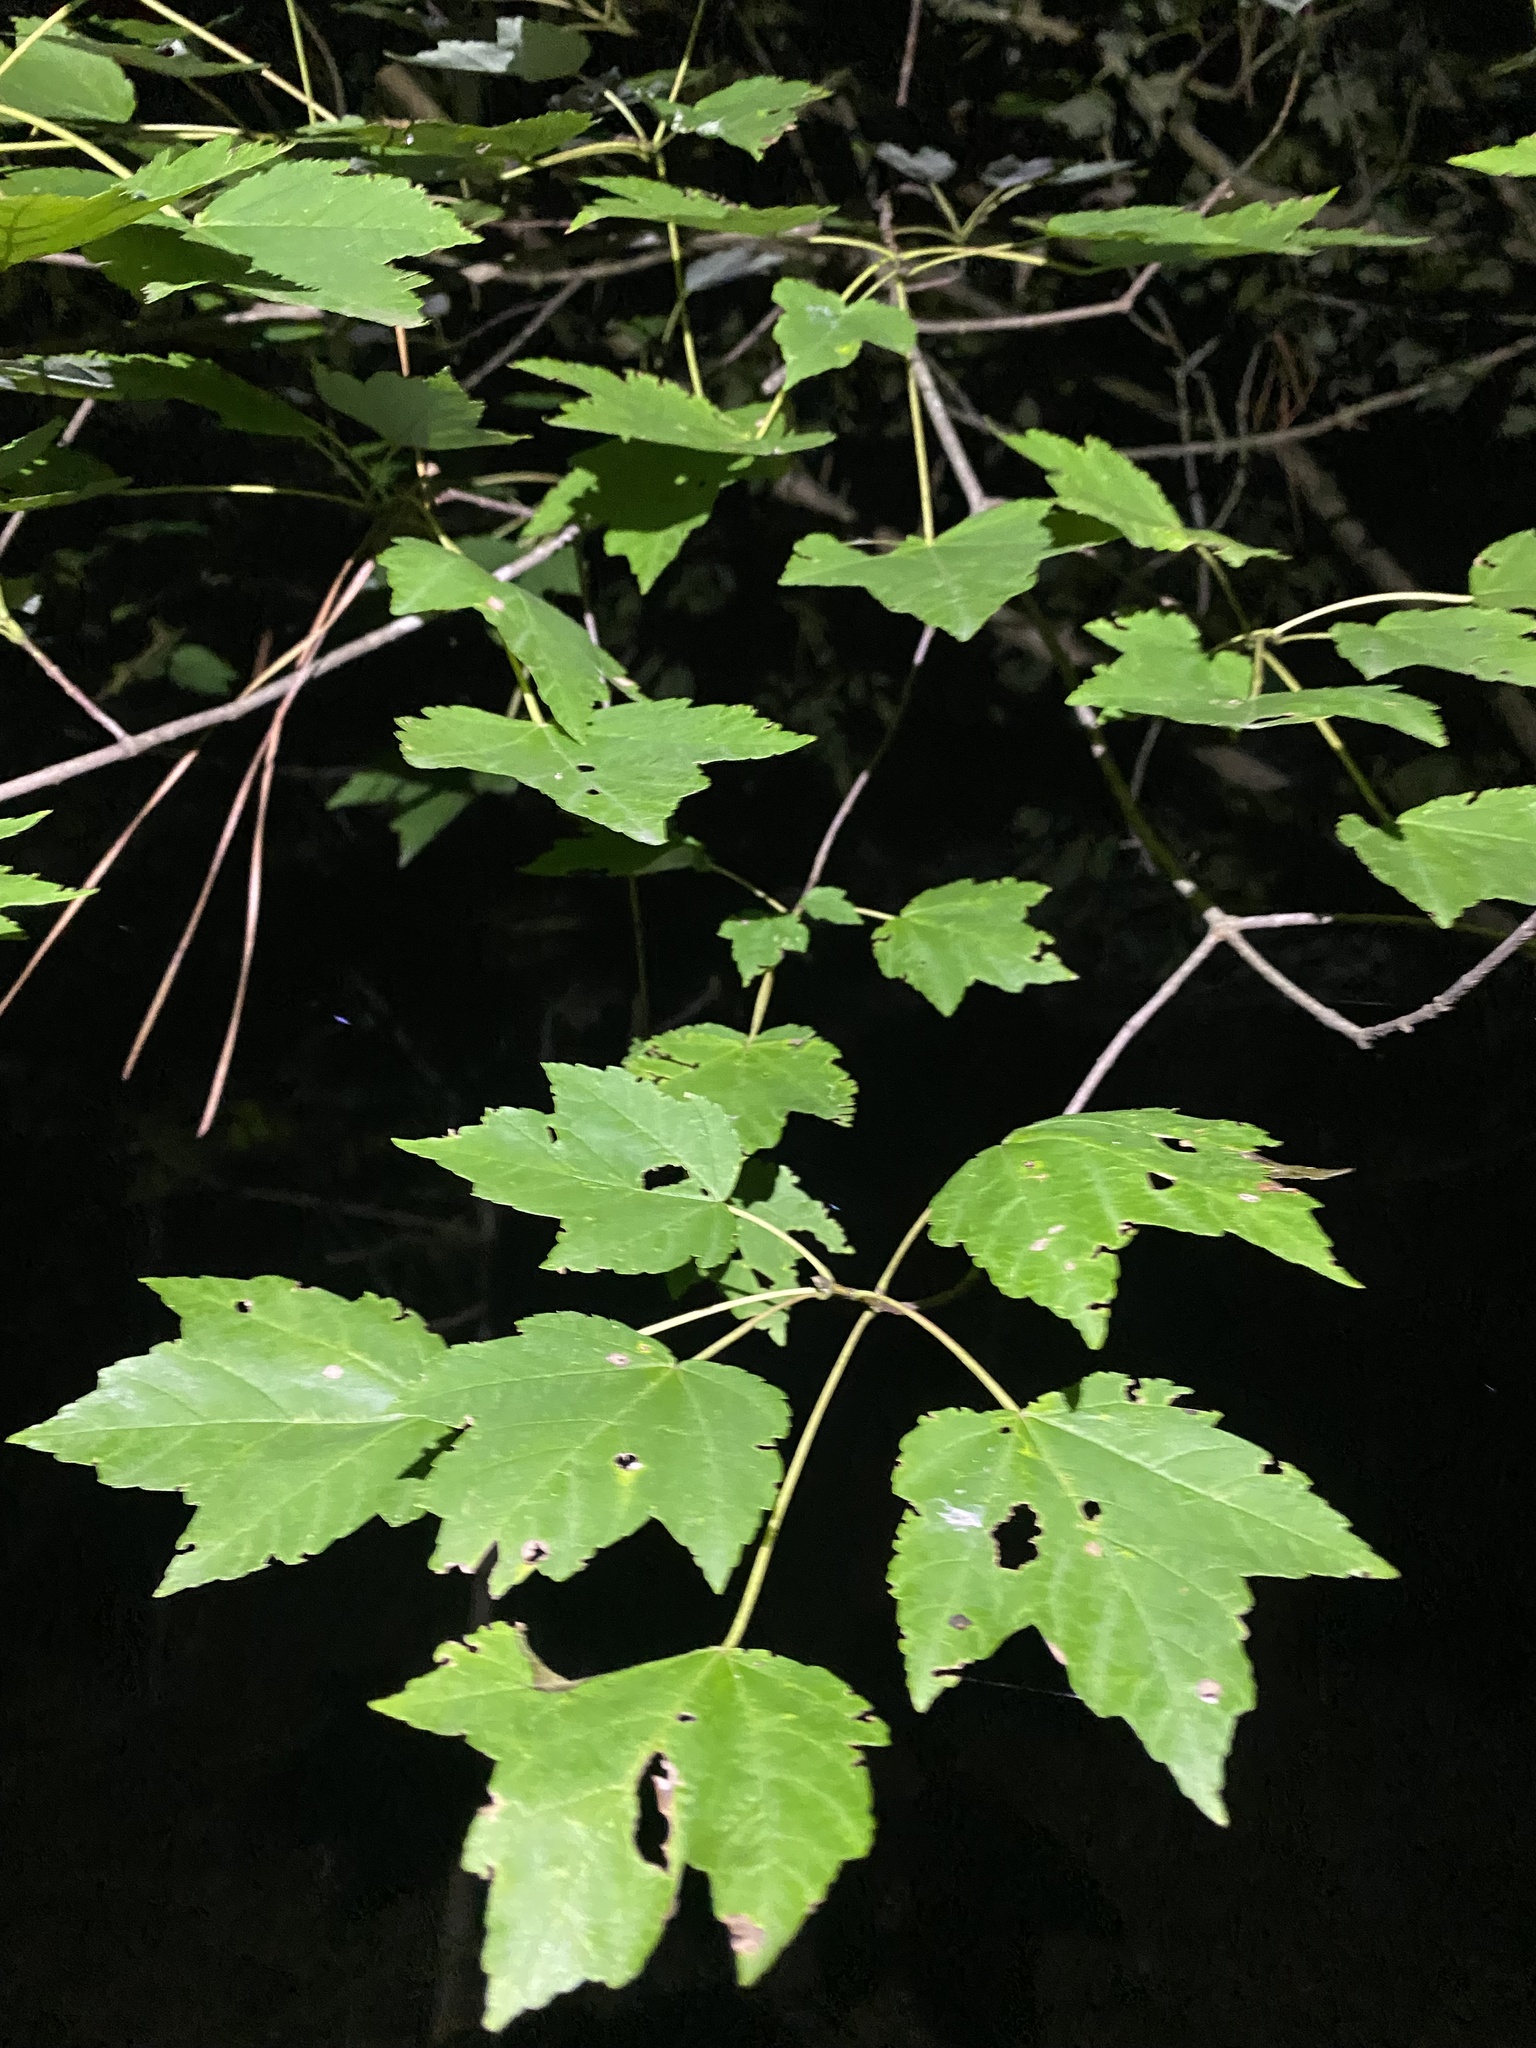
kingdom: Plantae
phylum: Tracheophyta
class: Magnoliopsida
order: Sapindales
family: Sapindaceae
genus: Acer
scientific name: Acer rubrum
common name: Red maple
